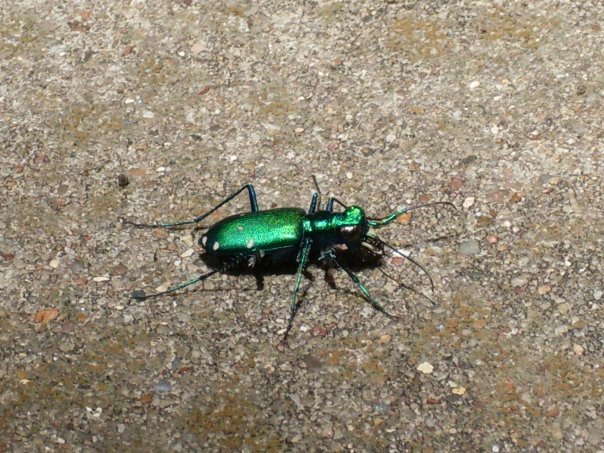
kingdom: Animalia
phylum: Arthropoda
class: Insecta
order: Coleoptera
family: Carabidae
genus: Cicindela
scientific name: Cicindela sexguttata
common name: Six-spotted tiger beetle
